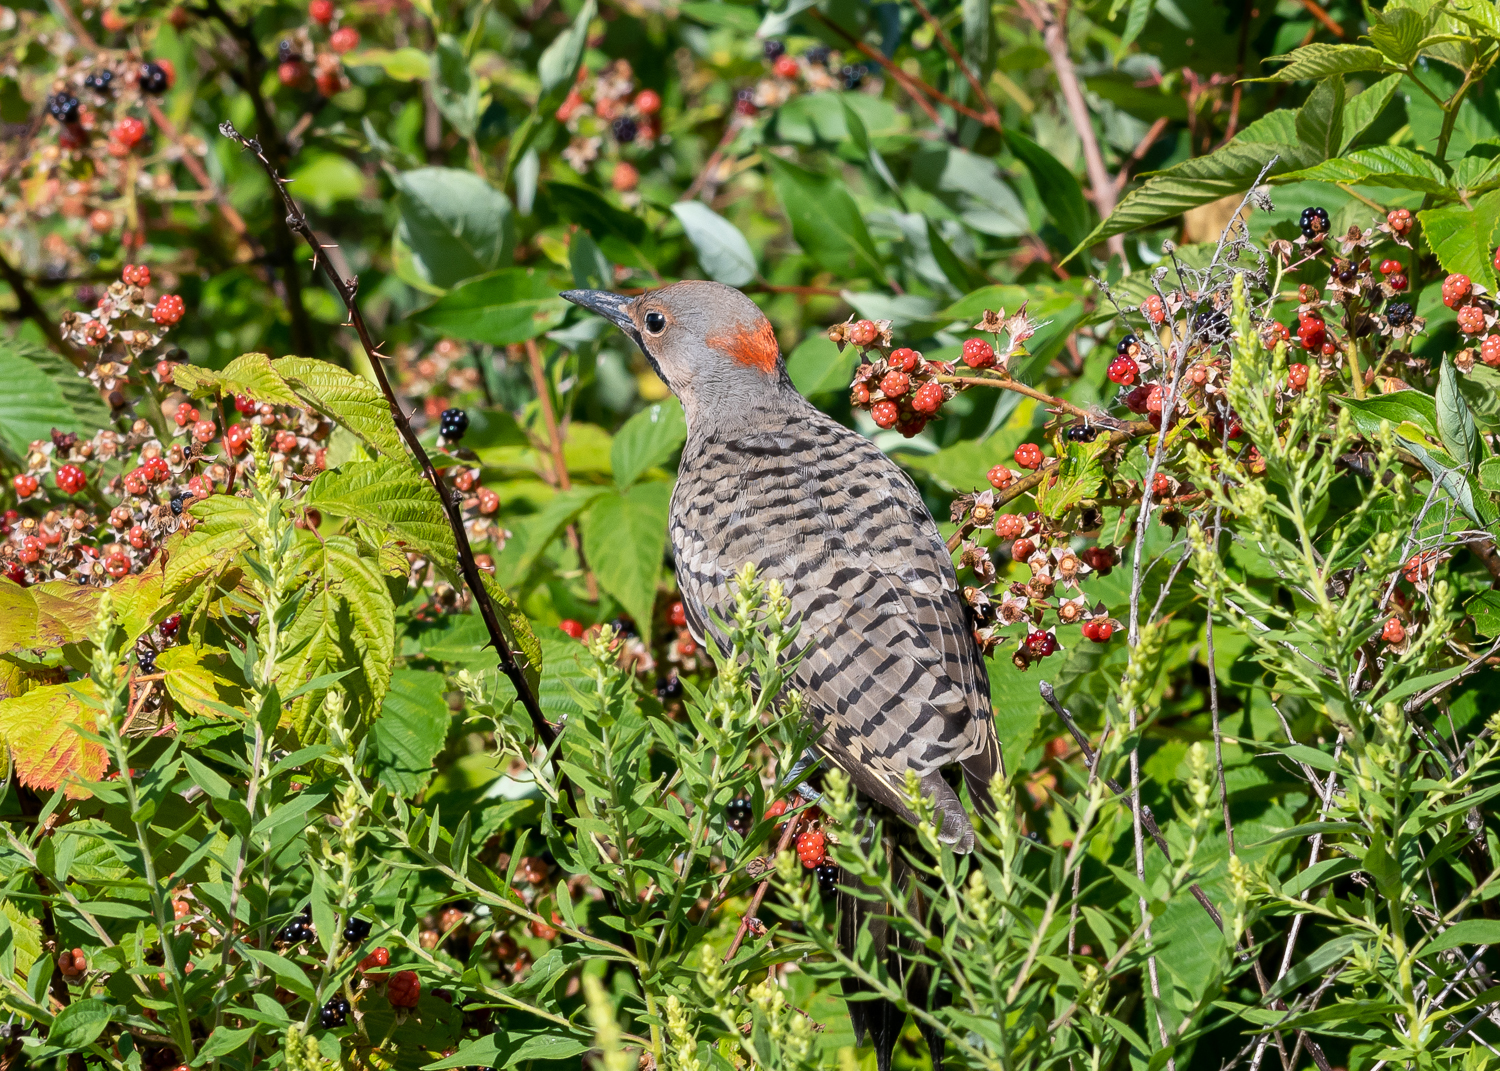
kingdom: Animalia
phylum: Chordata
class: Aves
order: Piciformes
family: Picidae
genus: Colaptes
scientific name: Colaptes auratus
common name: Northern flicker
